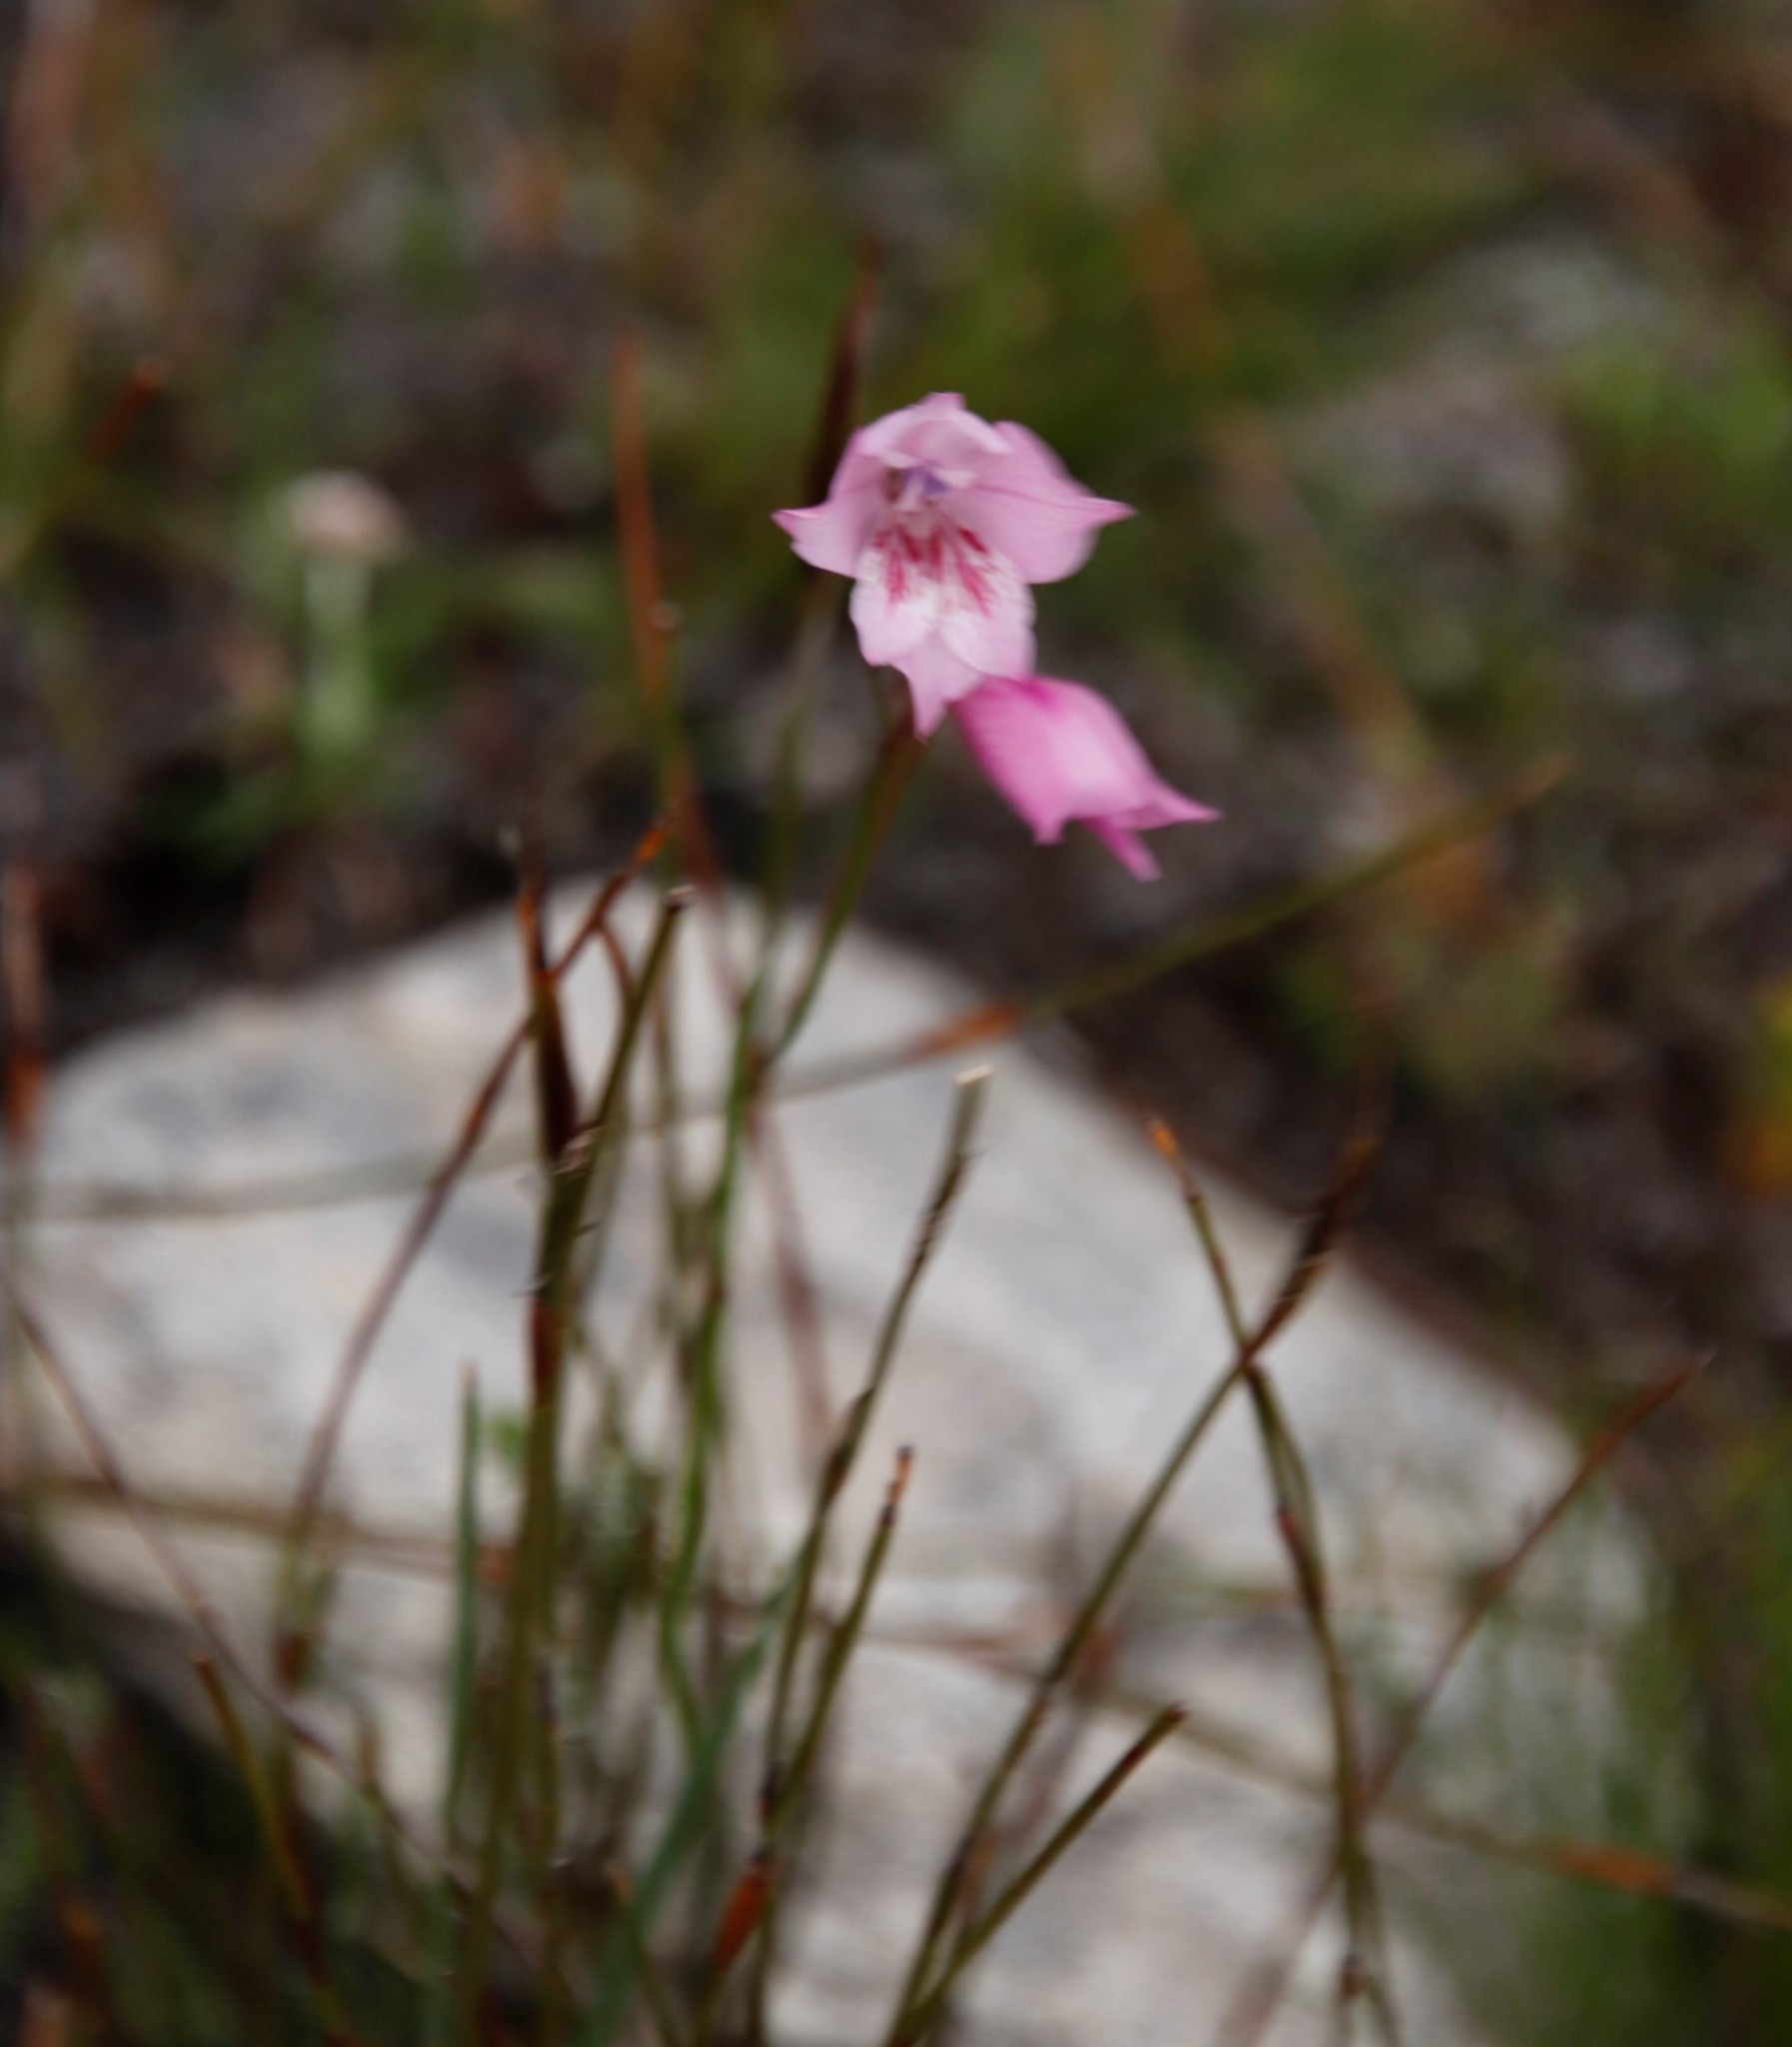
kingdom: Plantae
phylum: Tracheophyta
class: Liliopsida
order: Asparagales
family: Iridaceae
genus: Gladiolus
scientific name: Gladiolus hirsutus
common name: Small pink afrikaner
